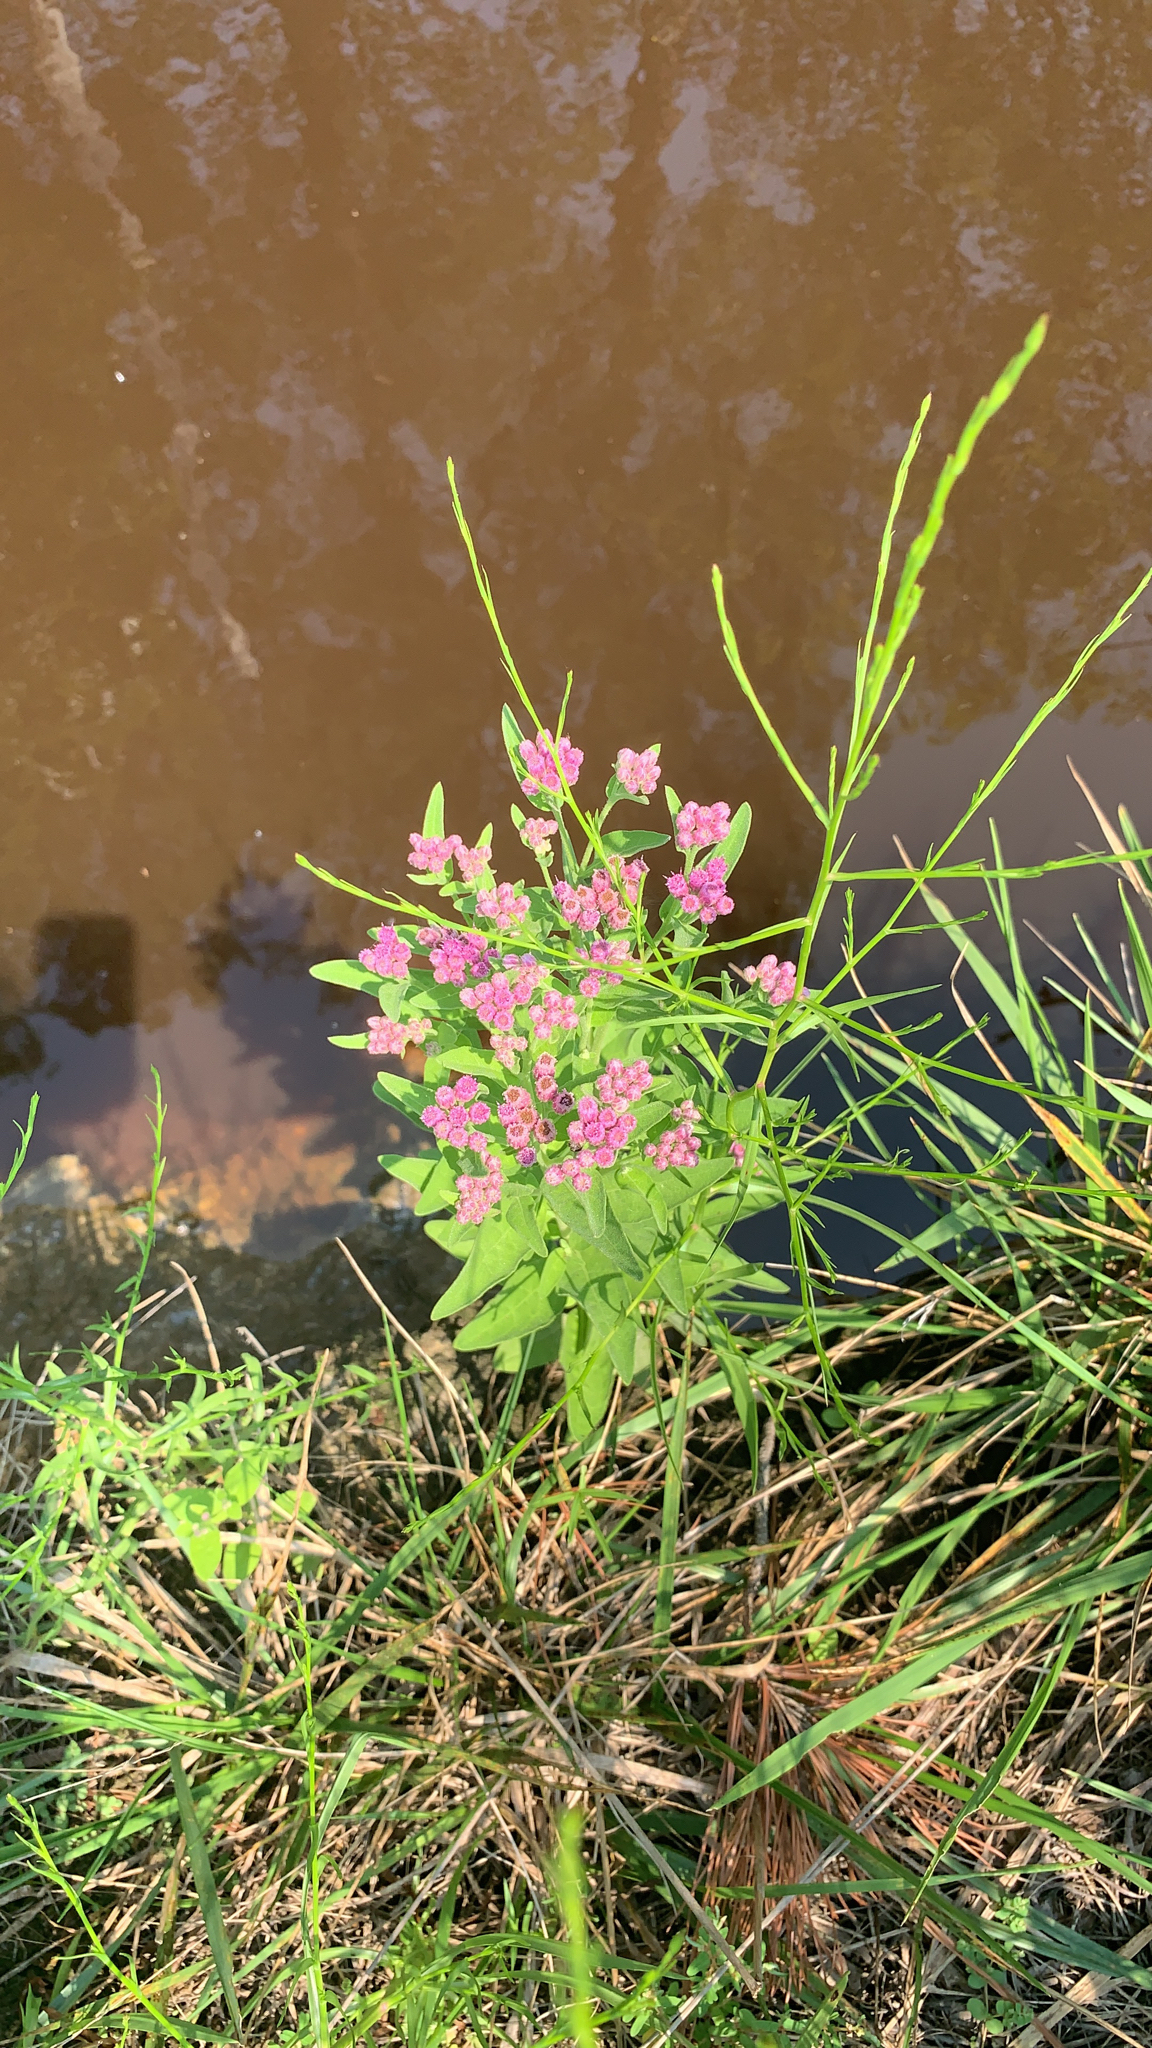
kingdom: Plantae
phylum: Tracheophyta
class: Magnoliopsida
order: Asterales
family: Asteraceae
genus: Pluchea
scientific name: Pluchea odorata
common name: Saltmarsh fleabane
